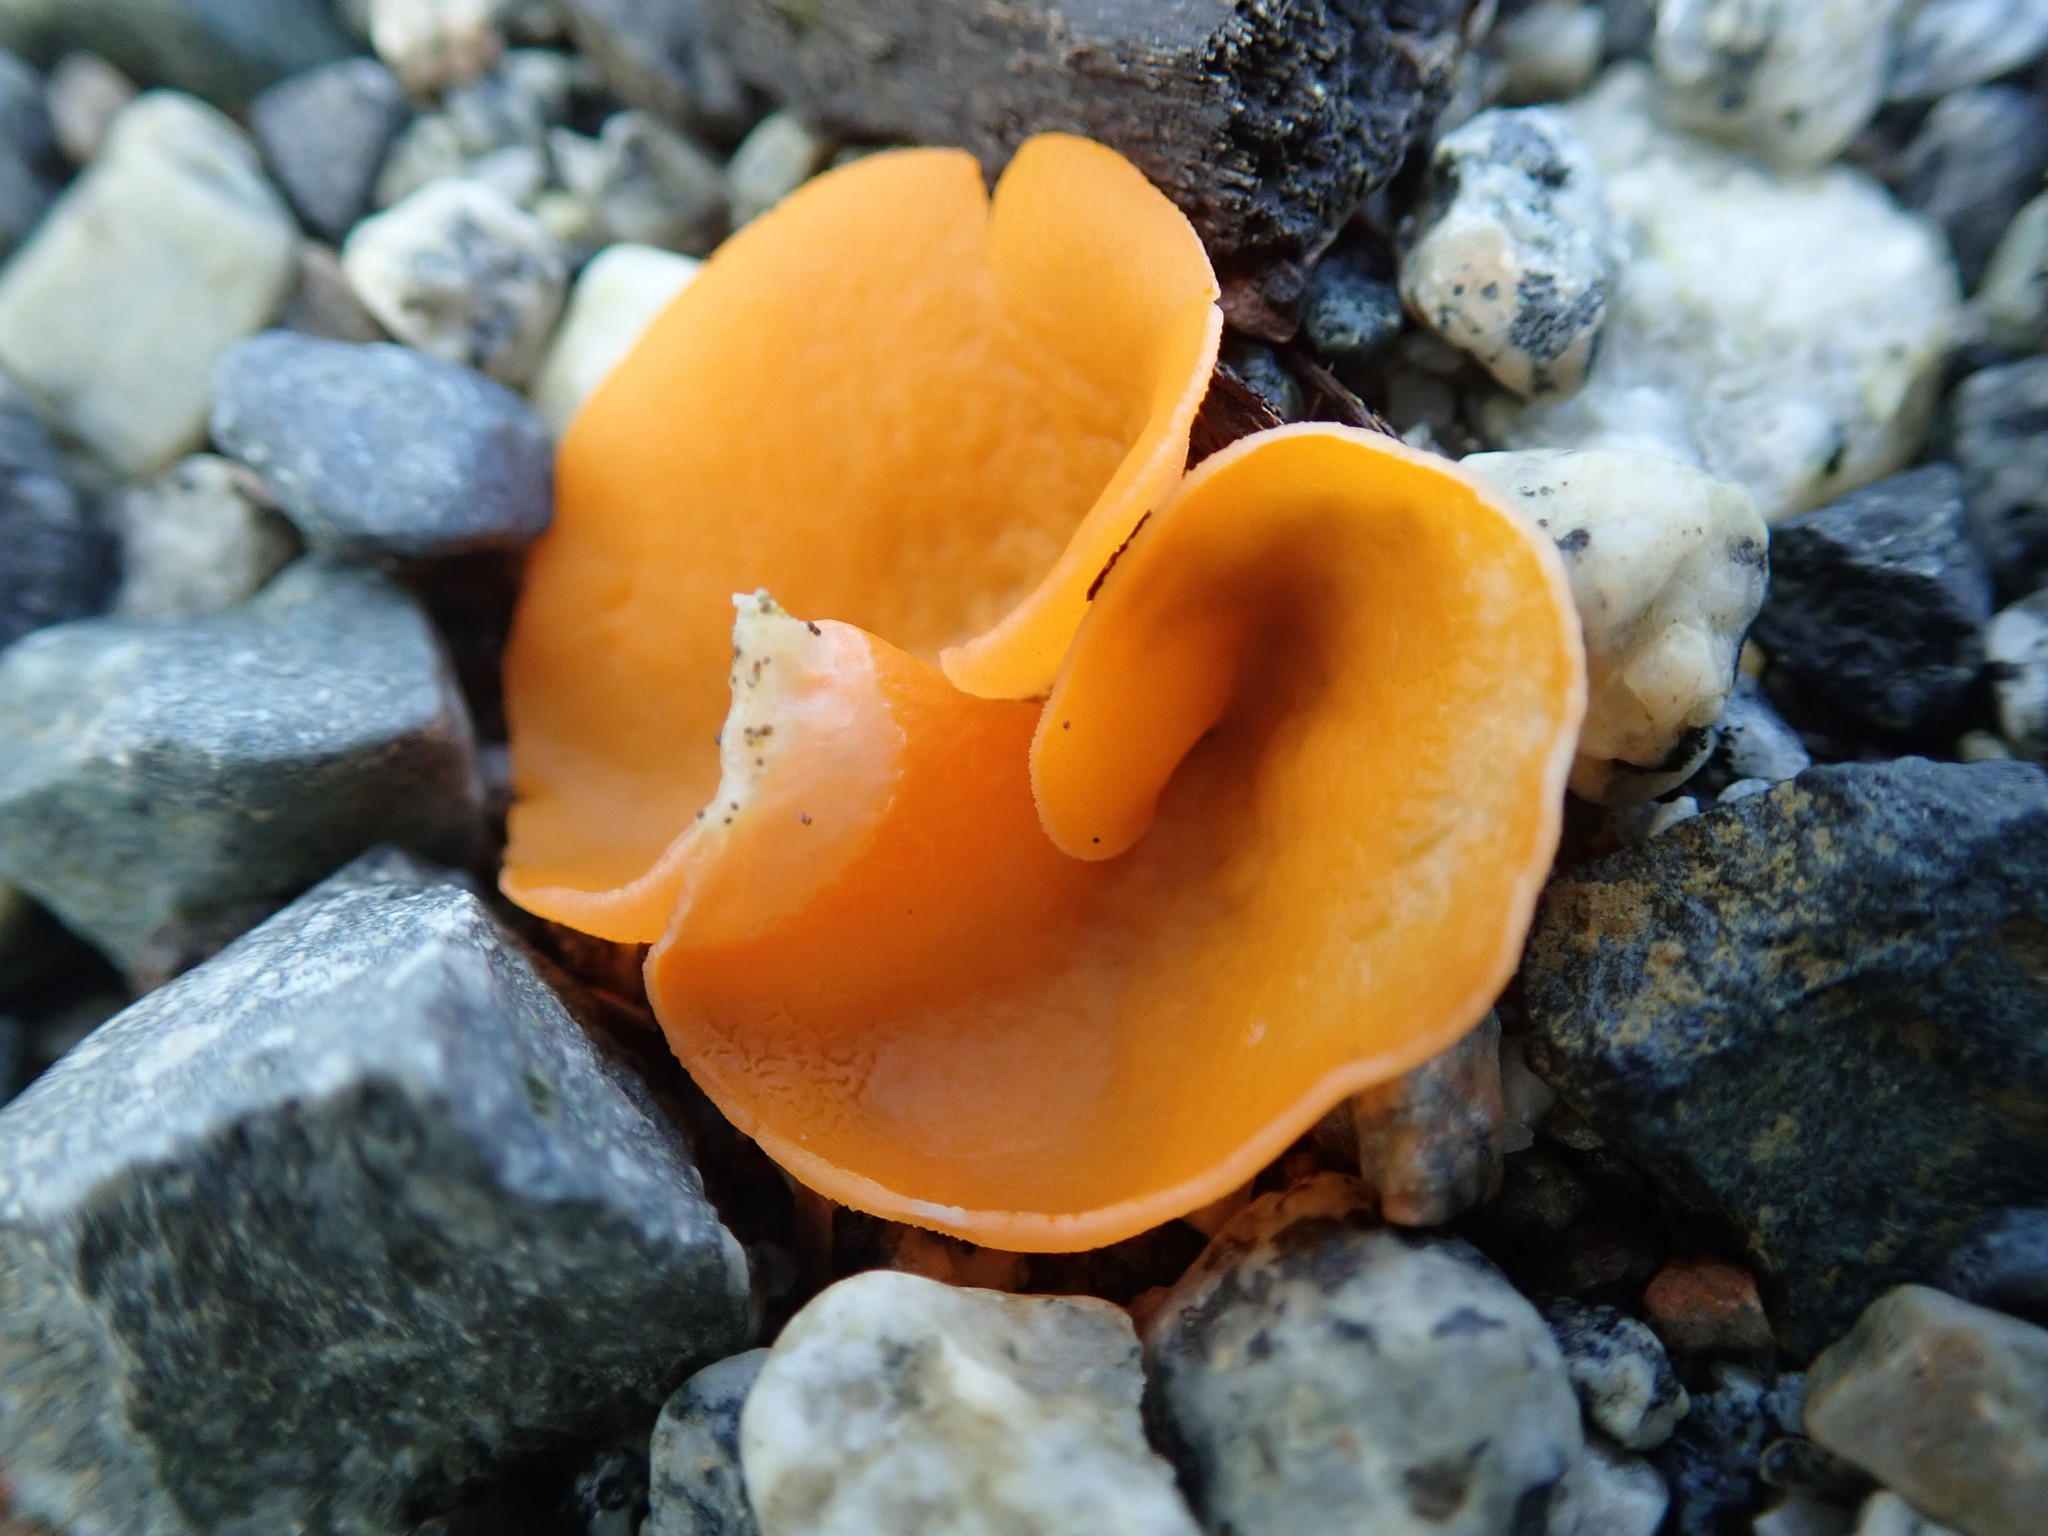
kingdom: Fungi
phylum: Ascomycota
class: Pezizomycetes
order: Pezizales
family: Pyronemataceae
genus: Aleuria
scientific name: Aleuria aurantia
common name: Orange peel fungus
